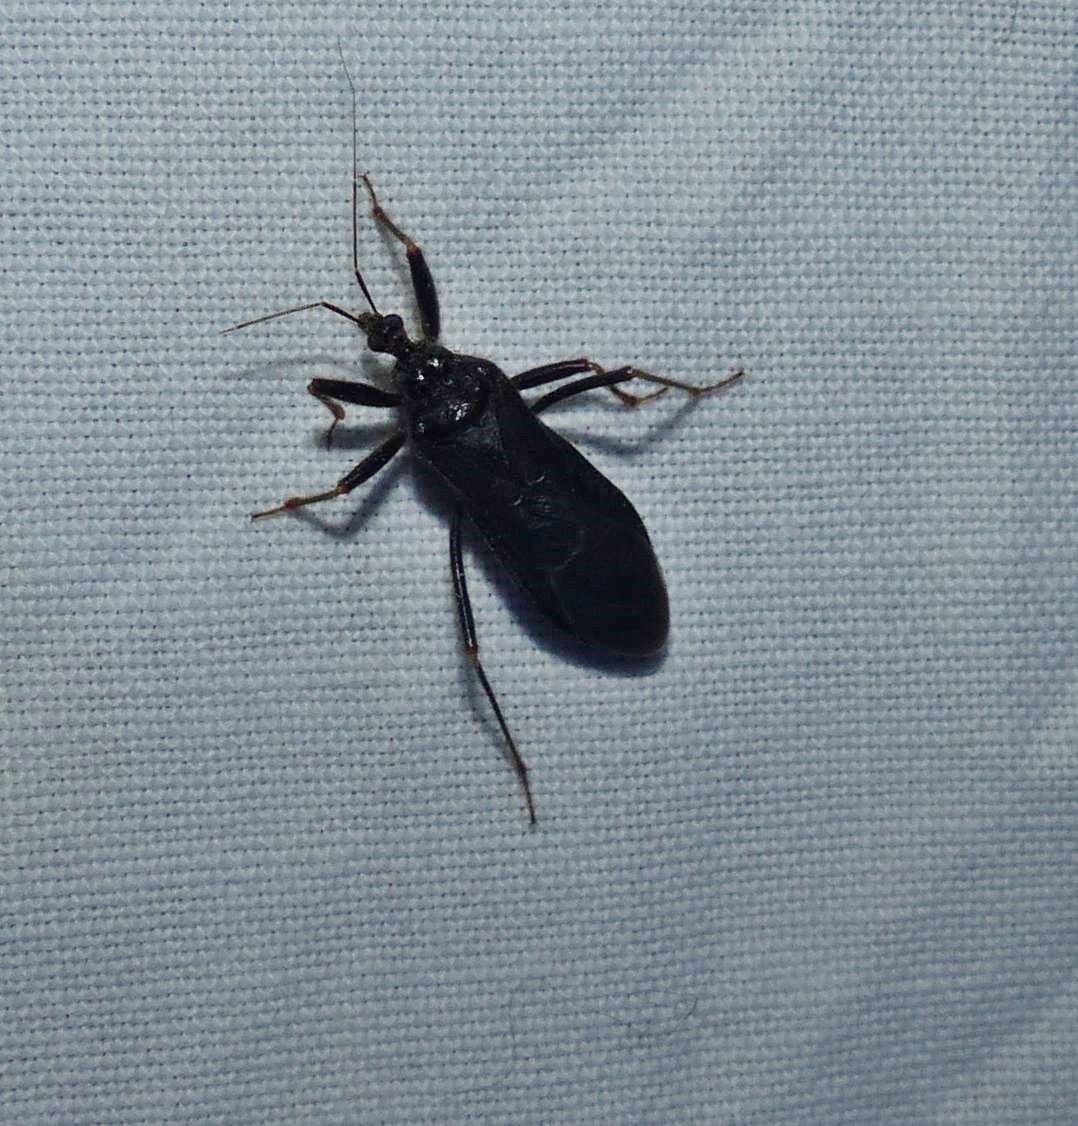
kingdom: Animalia
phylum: Arthropoda
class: Insecta
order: Hemiptera
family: Reduviidae
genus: Reduvius
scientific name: Reduvius personatus
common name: Masked hunter
